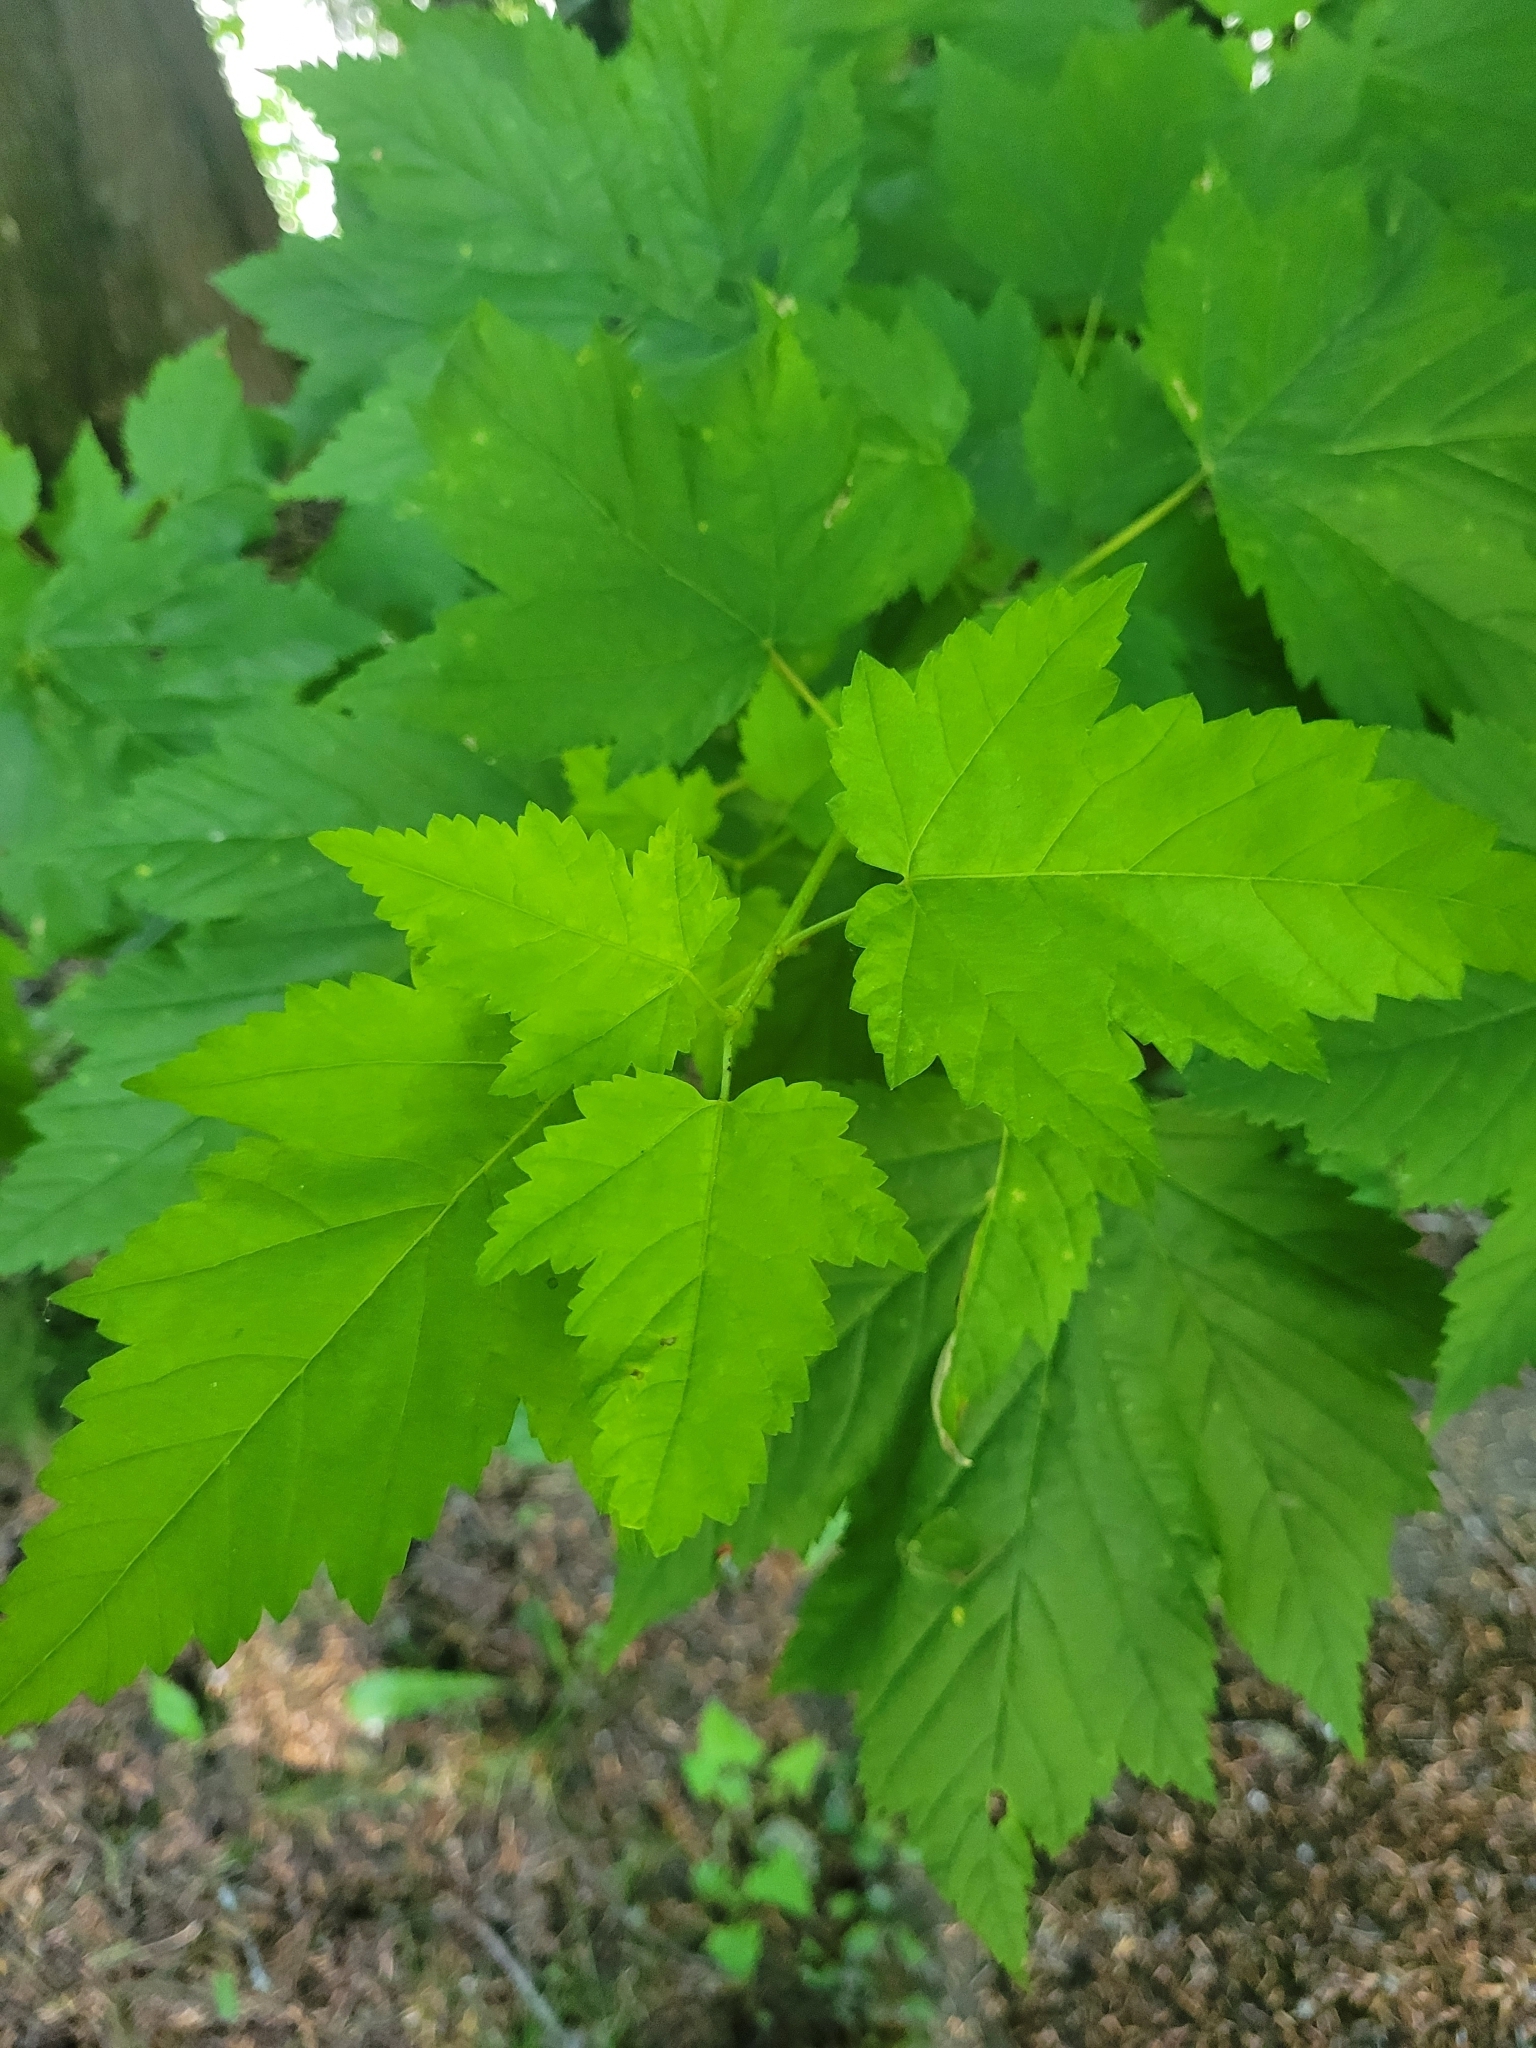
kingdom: Plantae
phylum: Tracheophyta
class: Magnoliopsida
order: Sapindales
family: Sapindaceae
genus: Acer
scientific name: Acer glabrum
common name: Rocky mountain maple
